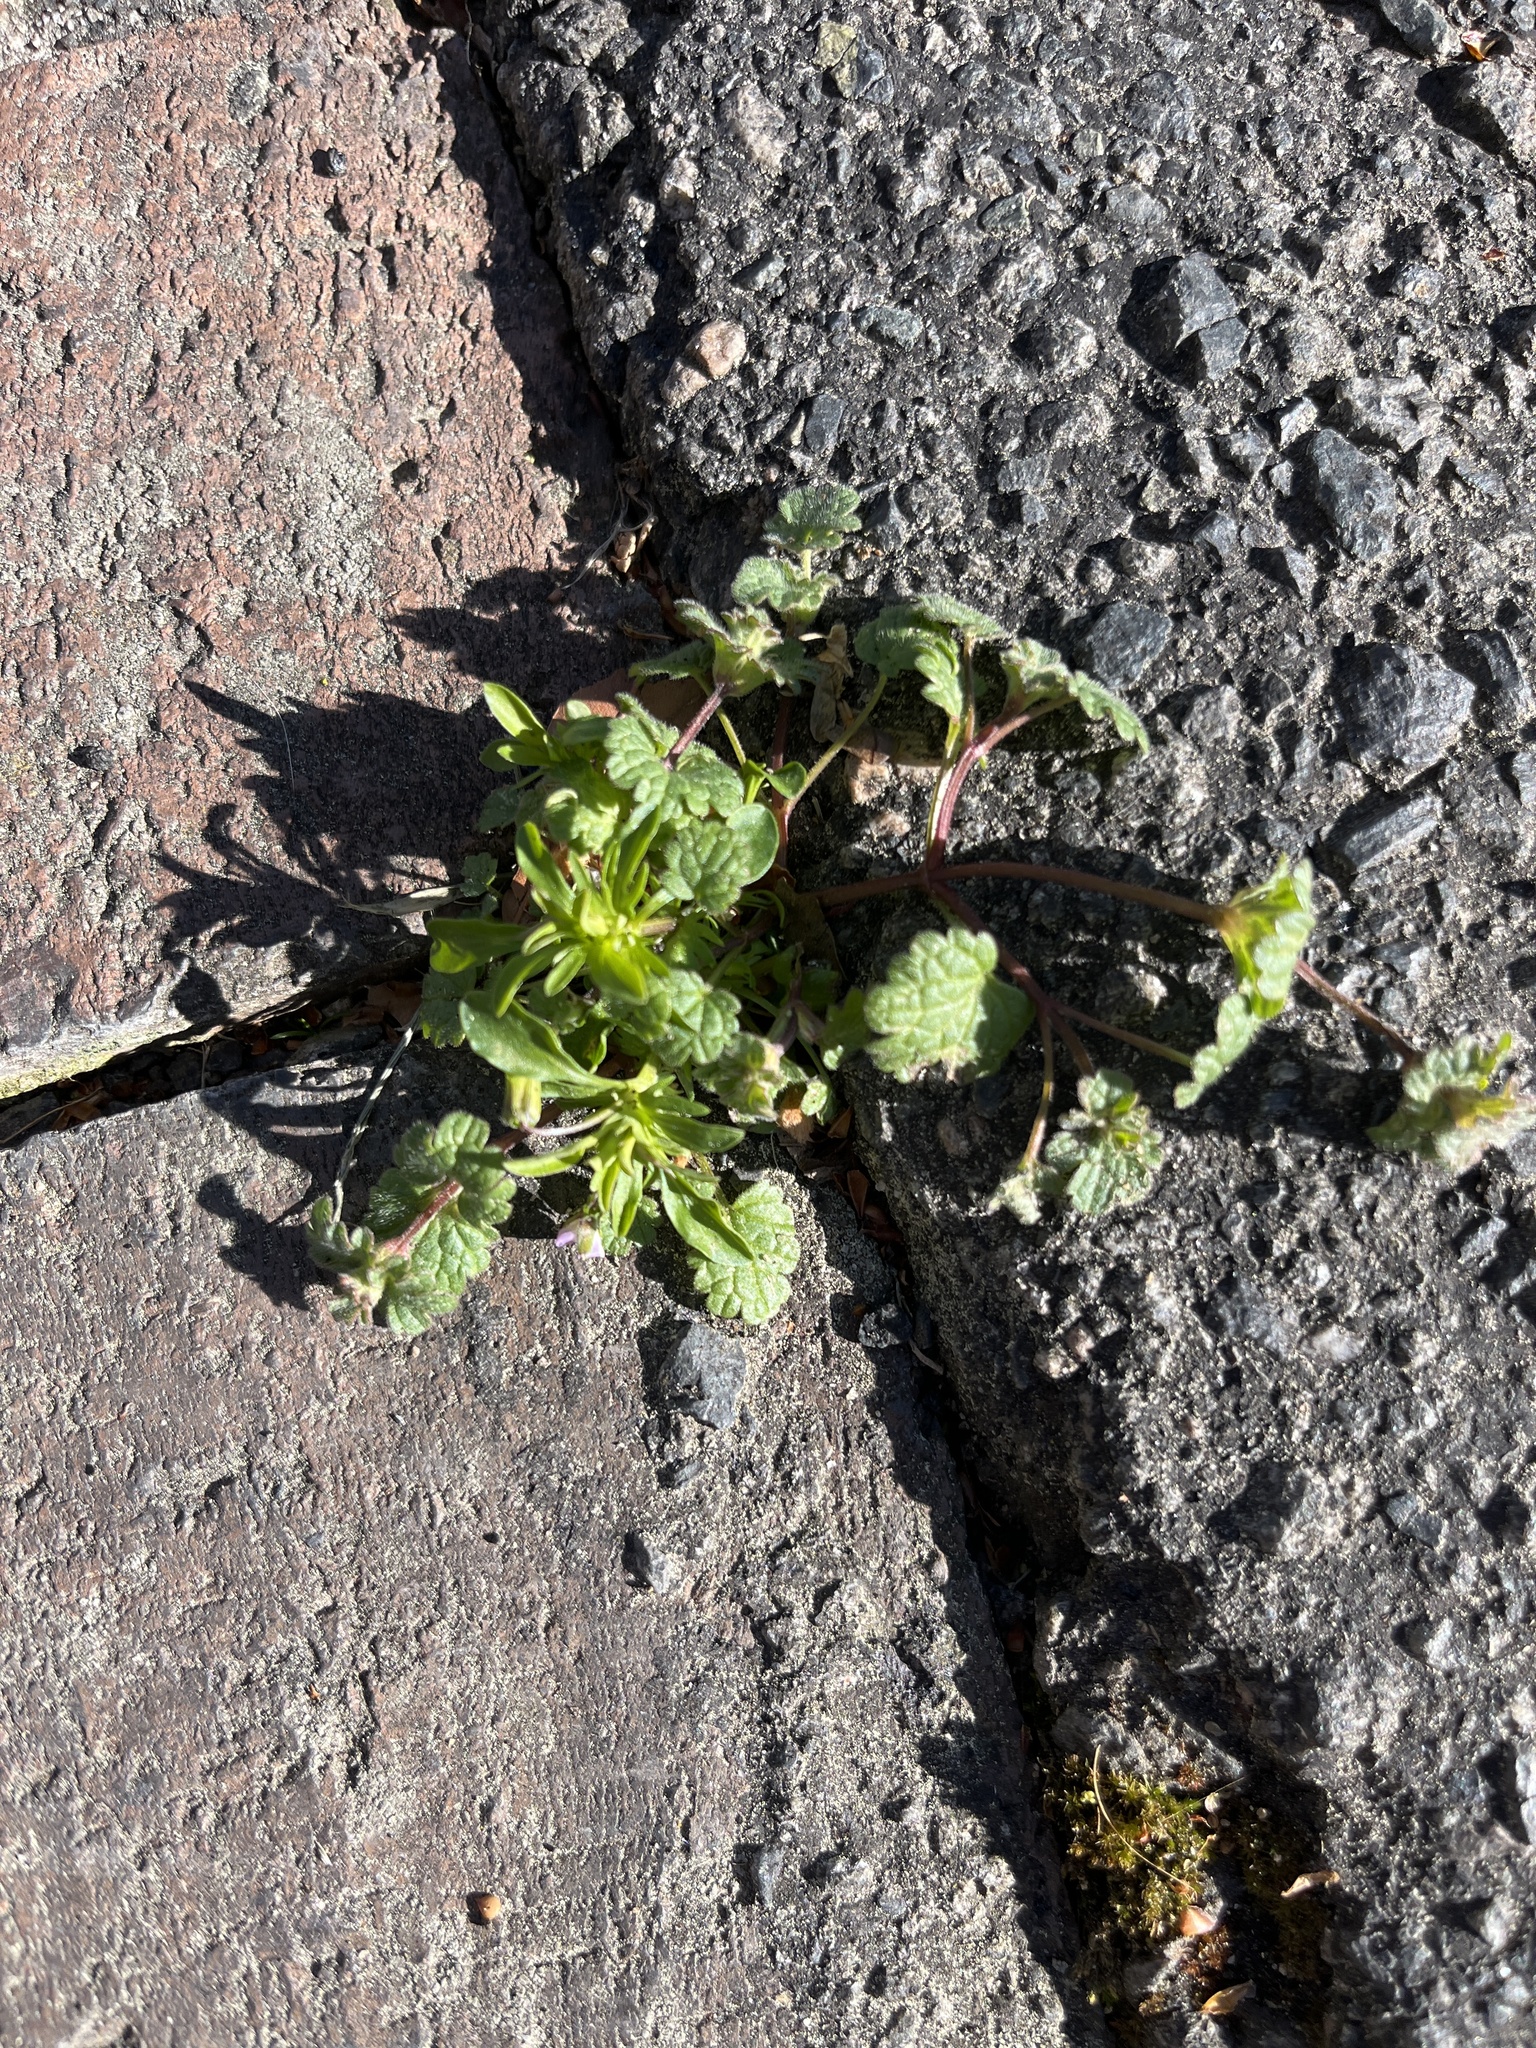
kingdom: Plantae
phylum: Tracheophyta
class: Magnoliopsida
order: Lamiales
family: Lamiaceae
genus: Lamium
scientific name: Lamium amplexicaule
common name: Henbit dead-nettle
